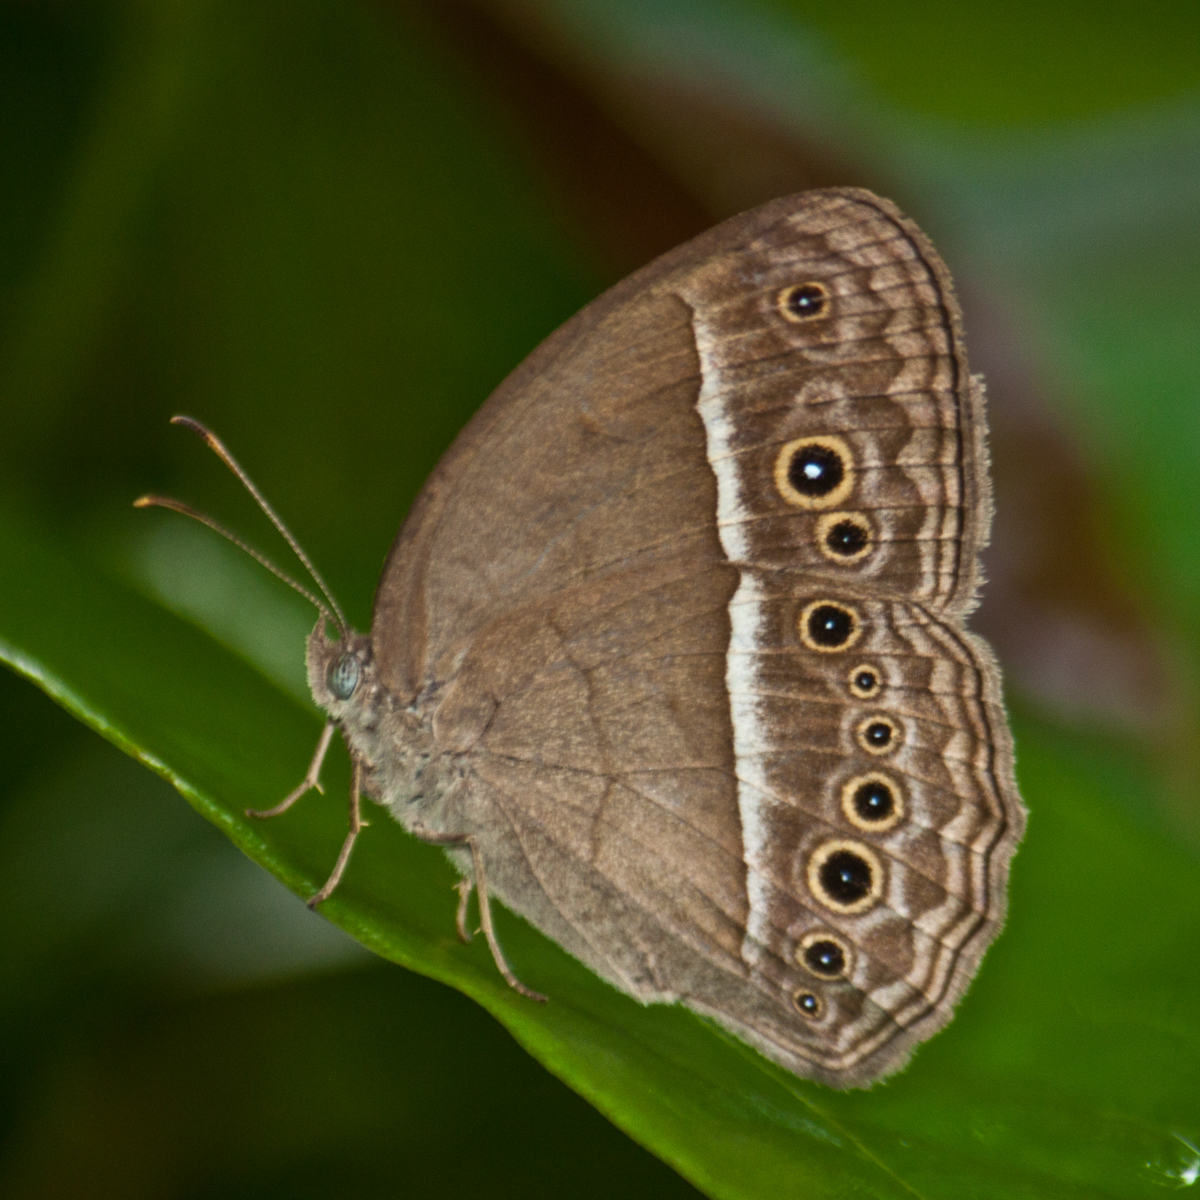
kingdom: Animalia
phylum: Arthropoda
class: Insecta
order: Lepidoptera
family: Nymphalidae
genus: Mycalesis
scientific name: Mycalesis perseoides
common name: Burmese bushbrown
